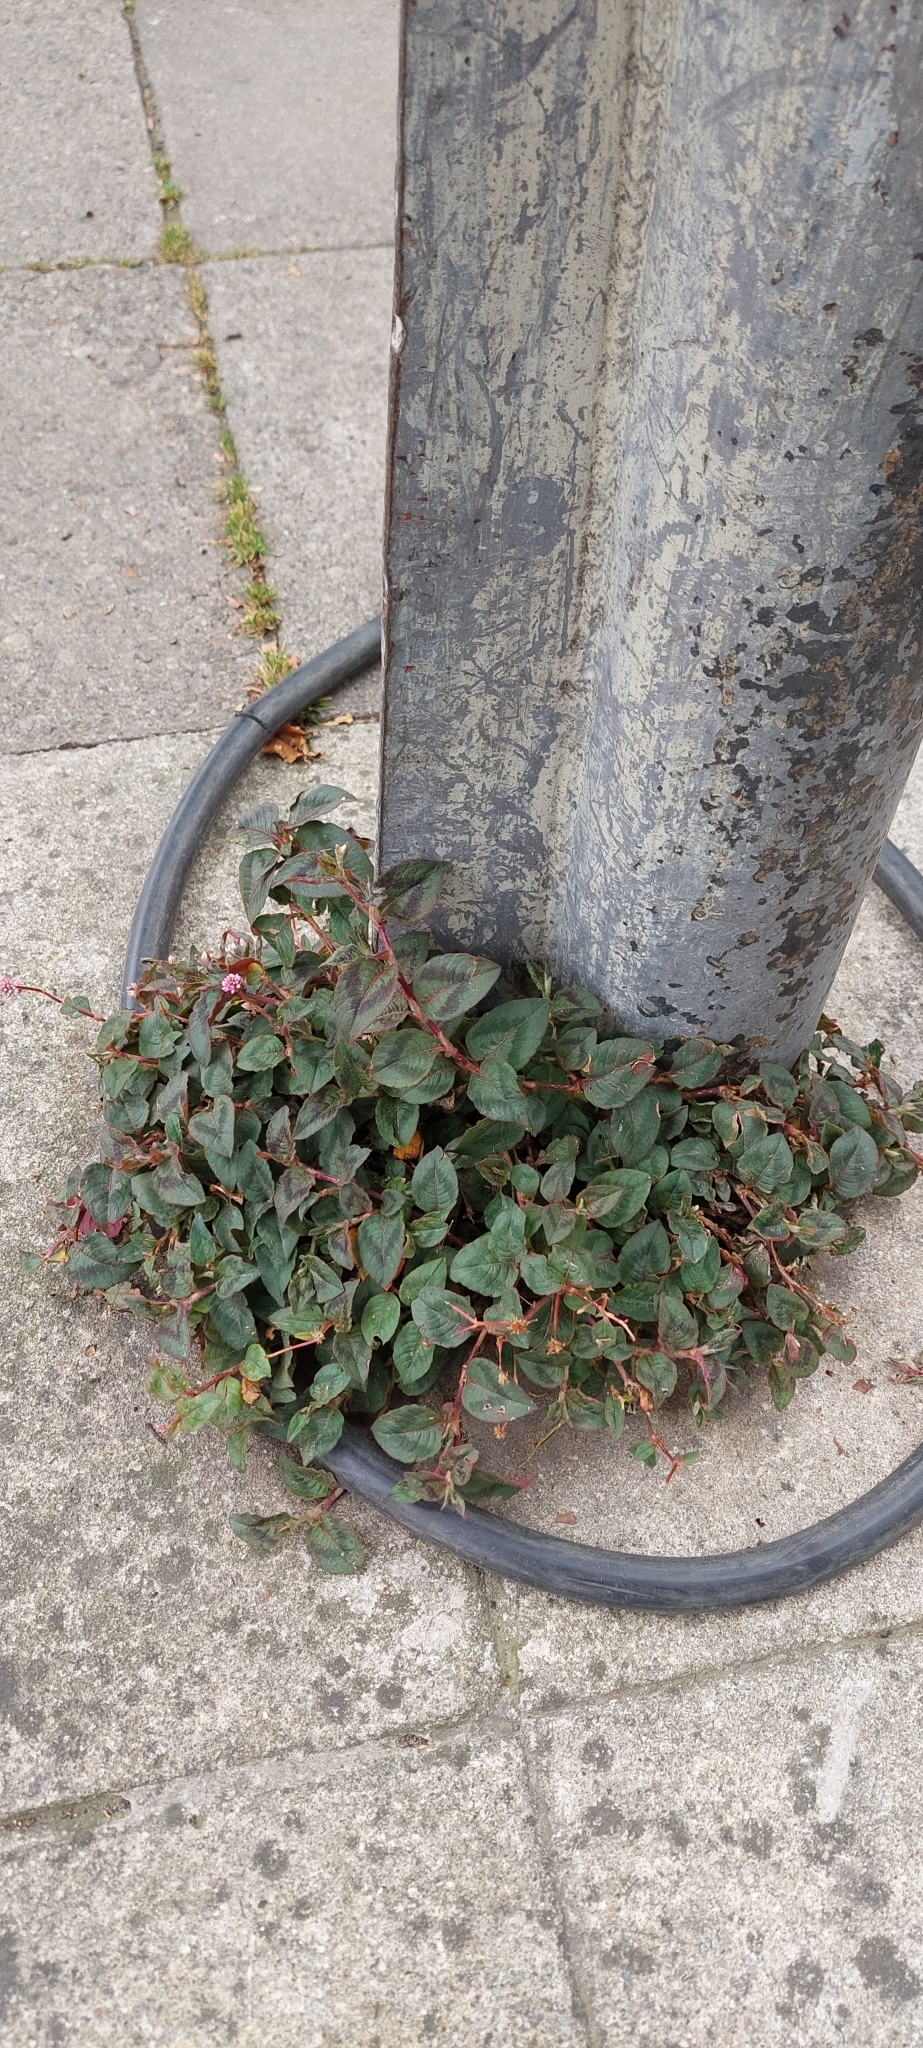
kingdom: Plantae
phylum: Tracheophyta
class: Magnoliopsida
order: Caryophyllales
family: Polygonaceae
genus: Persicaria
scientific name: Persicaria capitata
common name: Pinkhead smartweed
